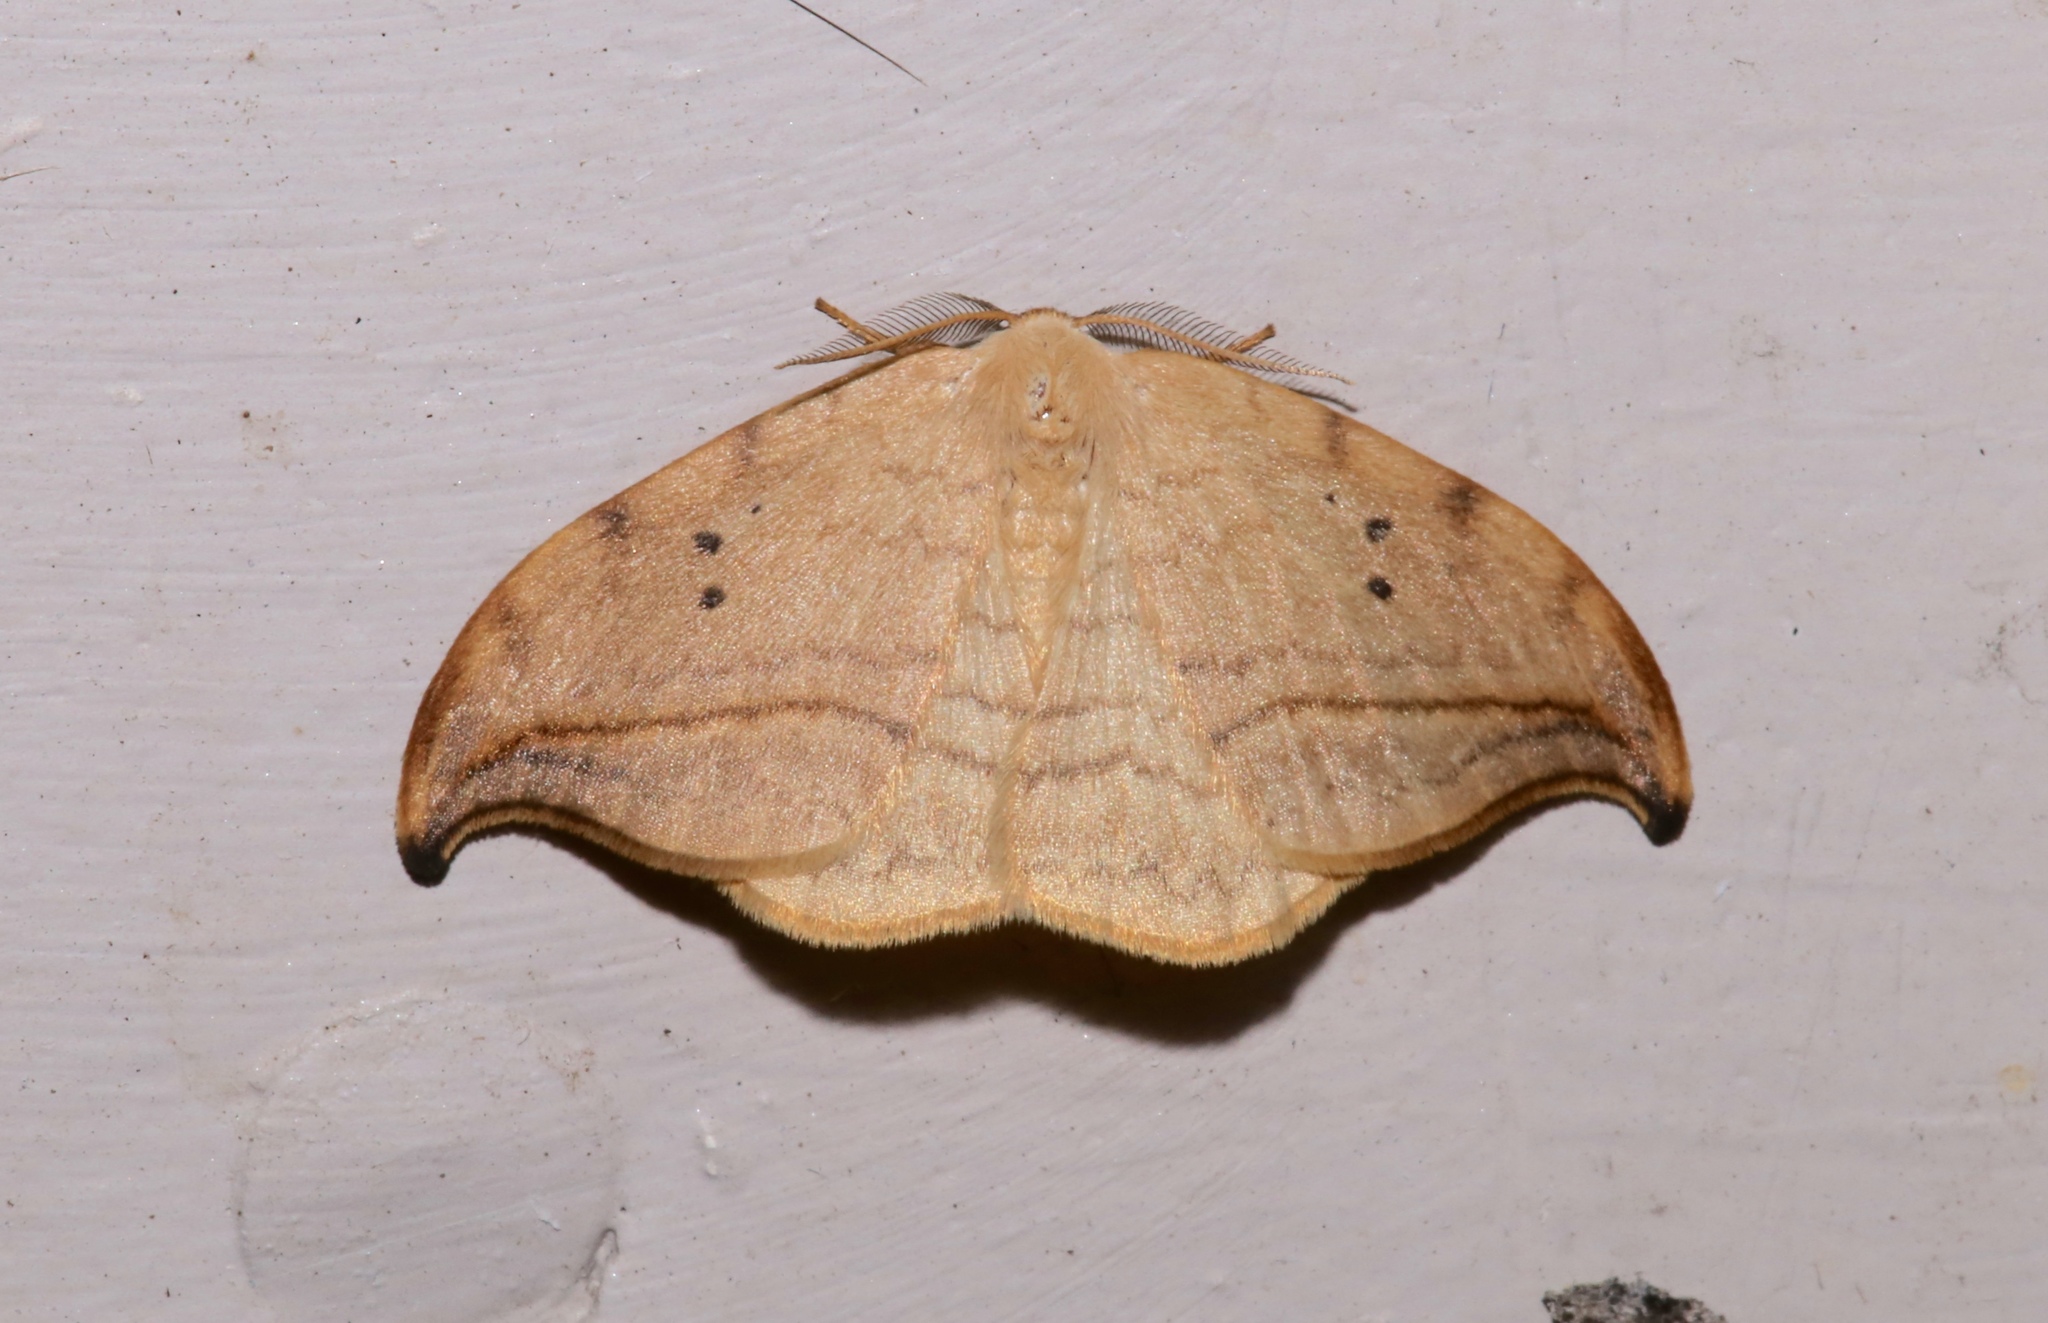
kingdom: Animalia
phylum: Arthropoda
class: Insecta
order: Lepidoptera
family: Drepanidae
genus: Drepana
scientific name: Drepana arcuata
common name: Arched hooktip moth
